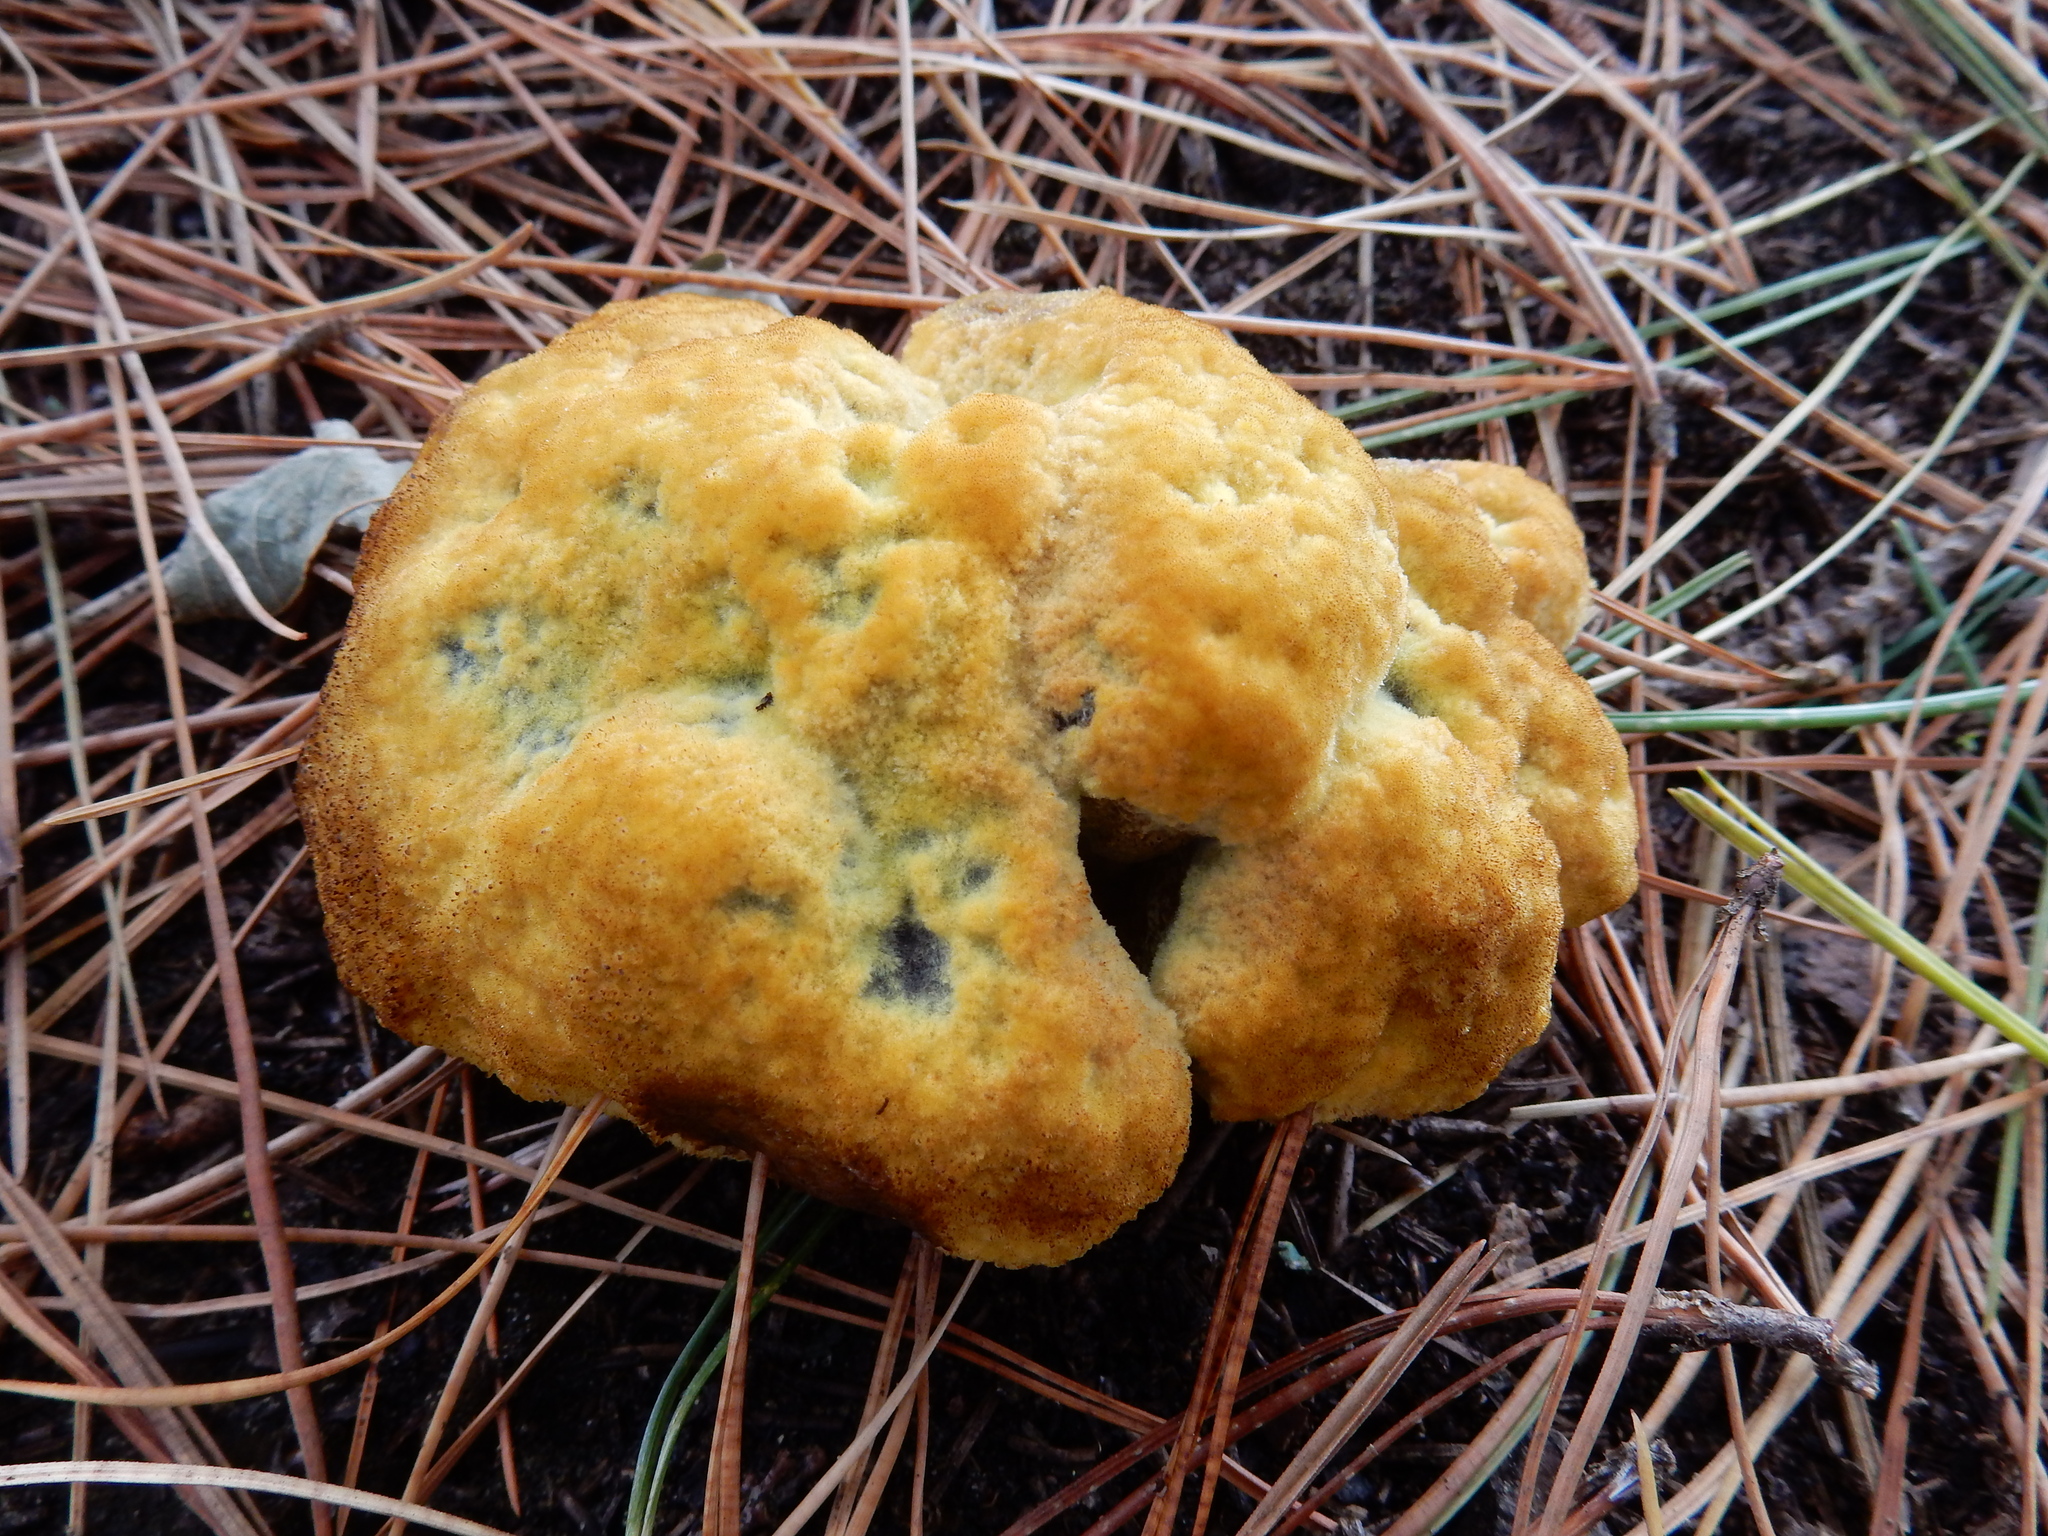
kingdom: Fungi
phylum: Basidiomycota
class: Agaricomycetes
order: Polyporales
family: Laetiporaceae
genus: Phaeolus
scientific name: Phaeolus schweinitzii
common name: Dyer's mazegill
